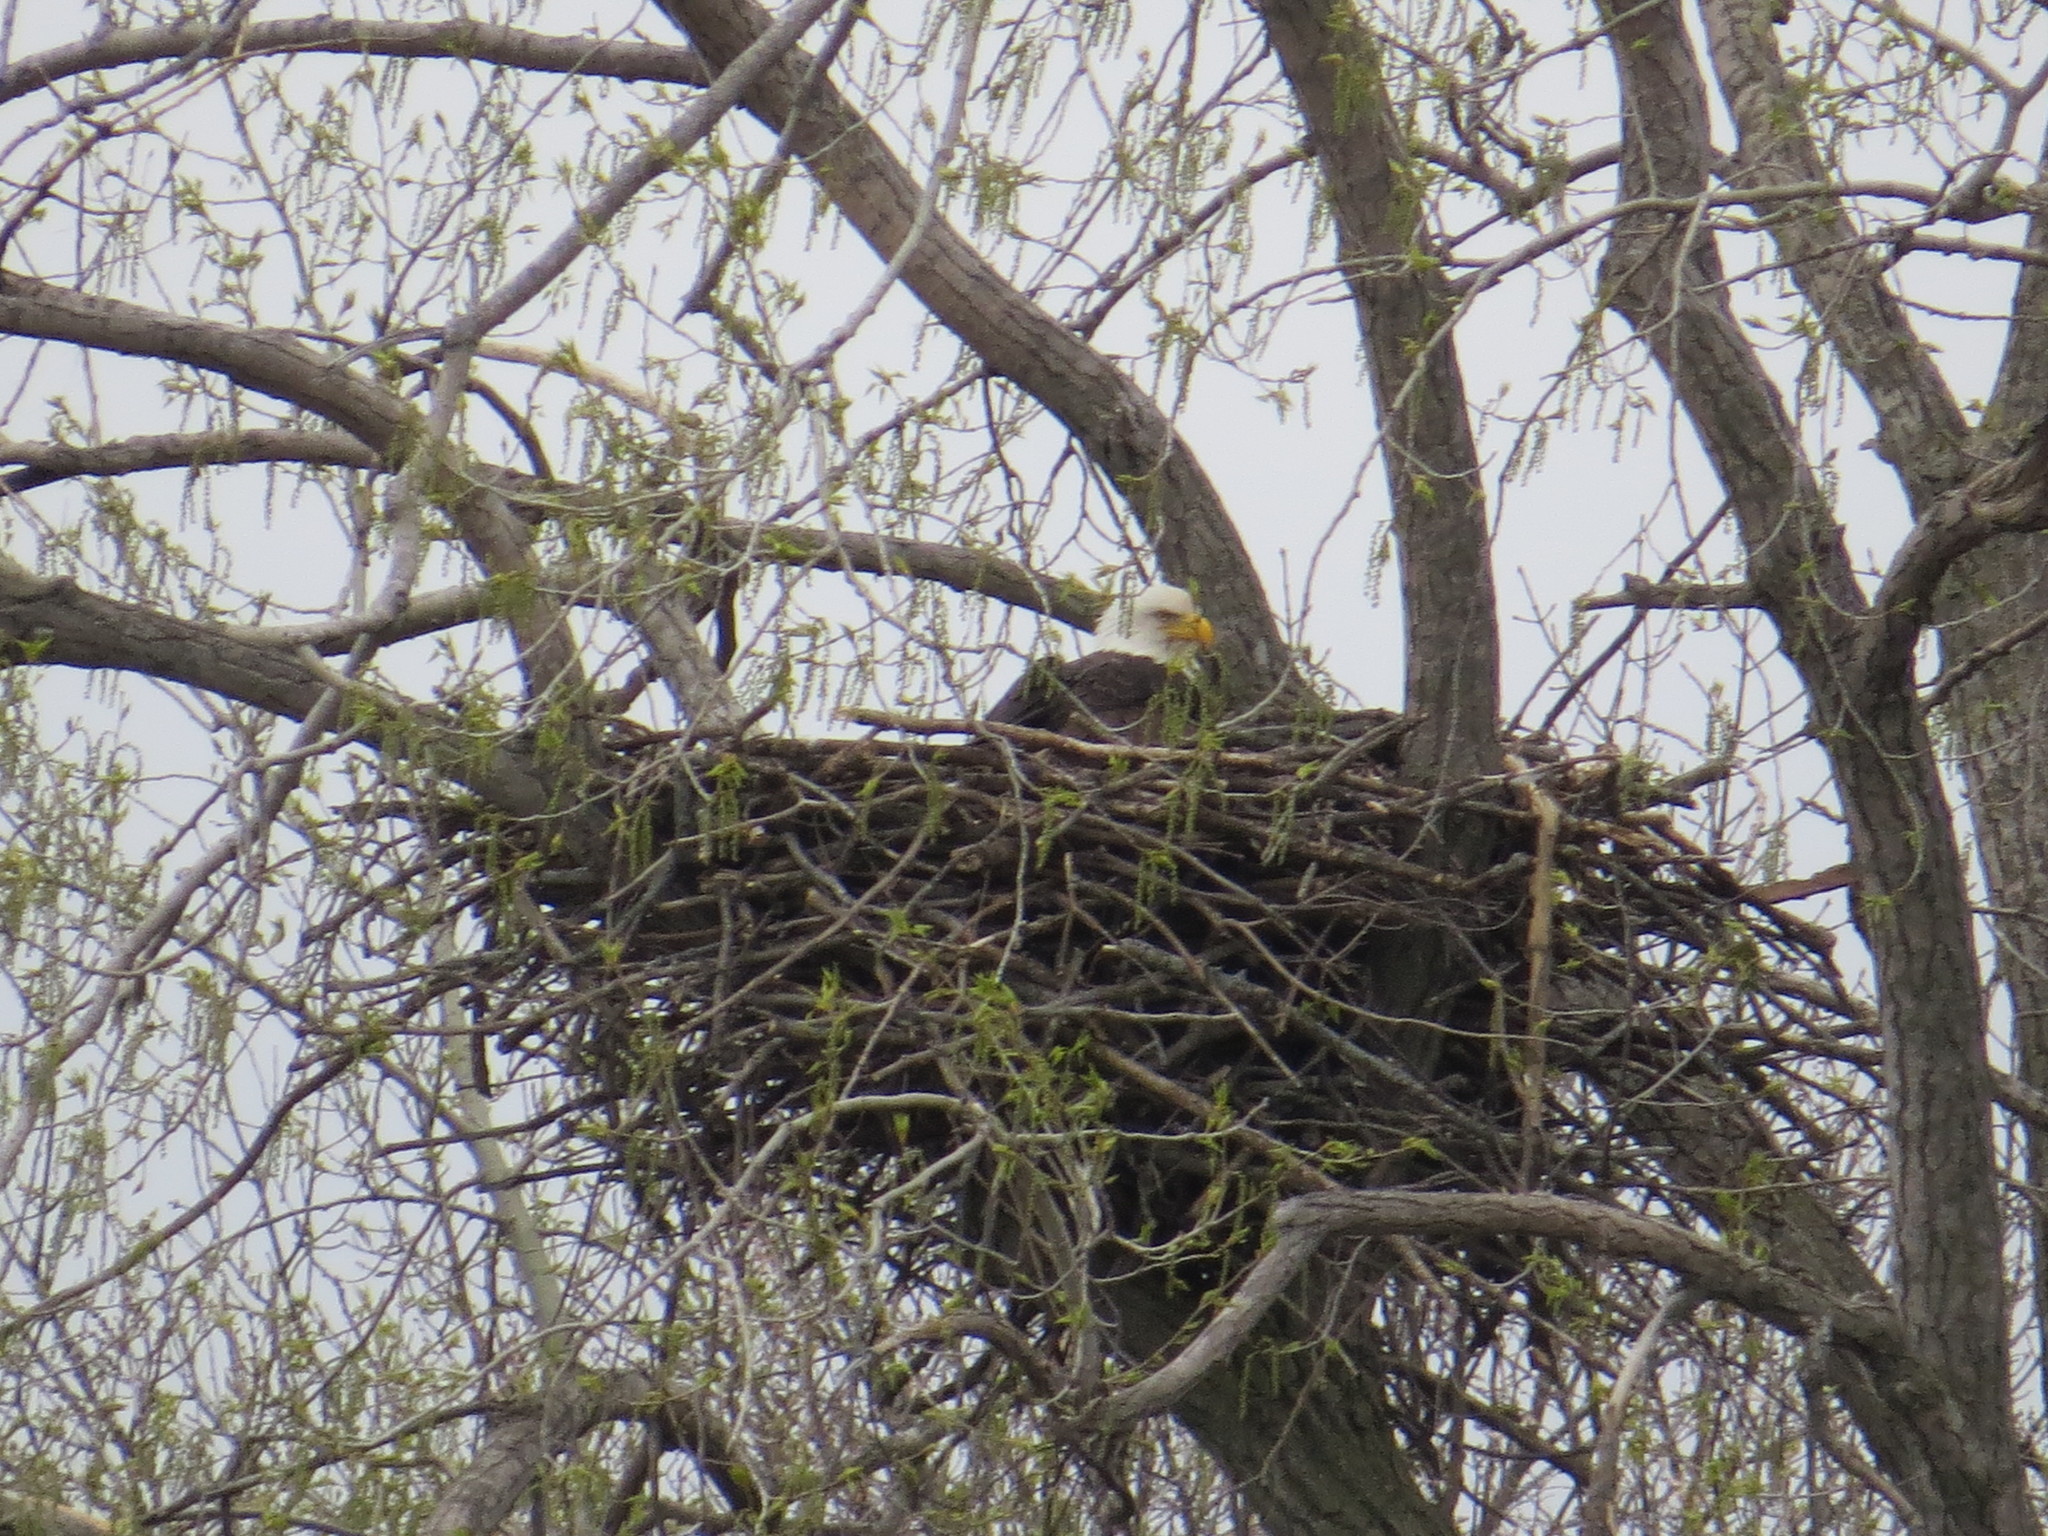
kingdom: Animalia
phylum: Chordata
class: Aves
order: Accipitriformes
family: Accipitridae
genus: Haliaeetus
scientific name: Haliaeetus leucocephalus
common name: Bald eagle
